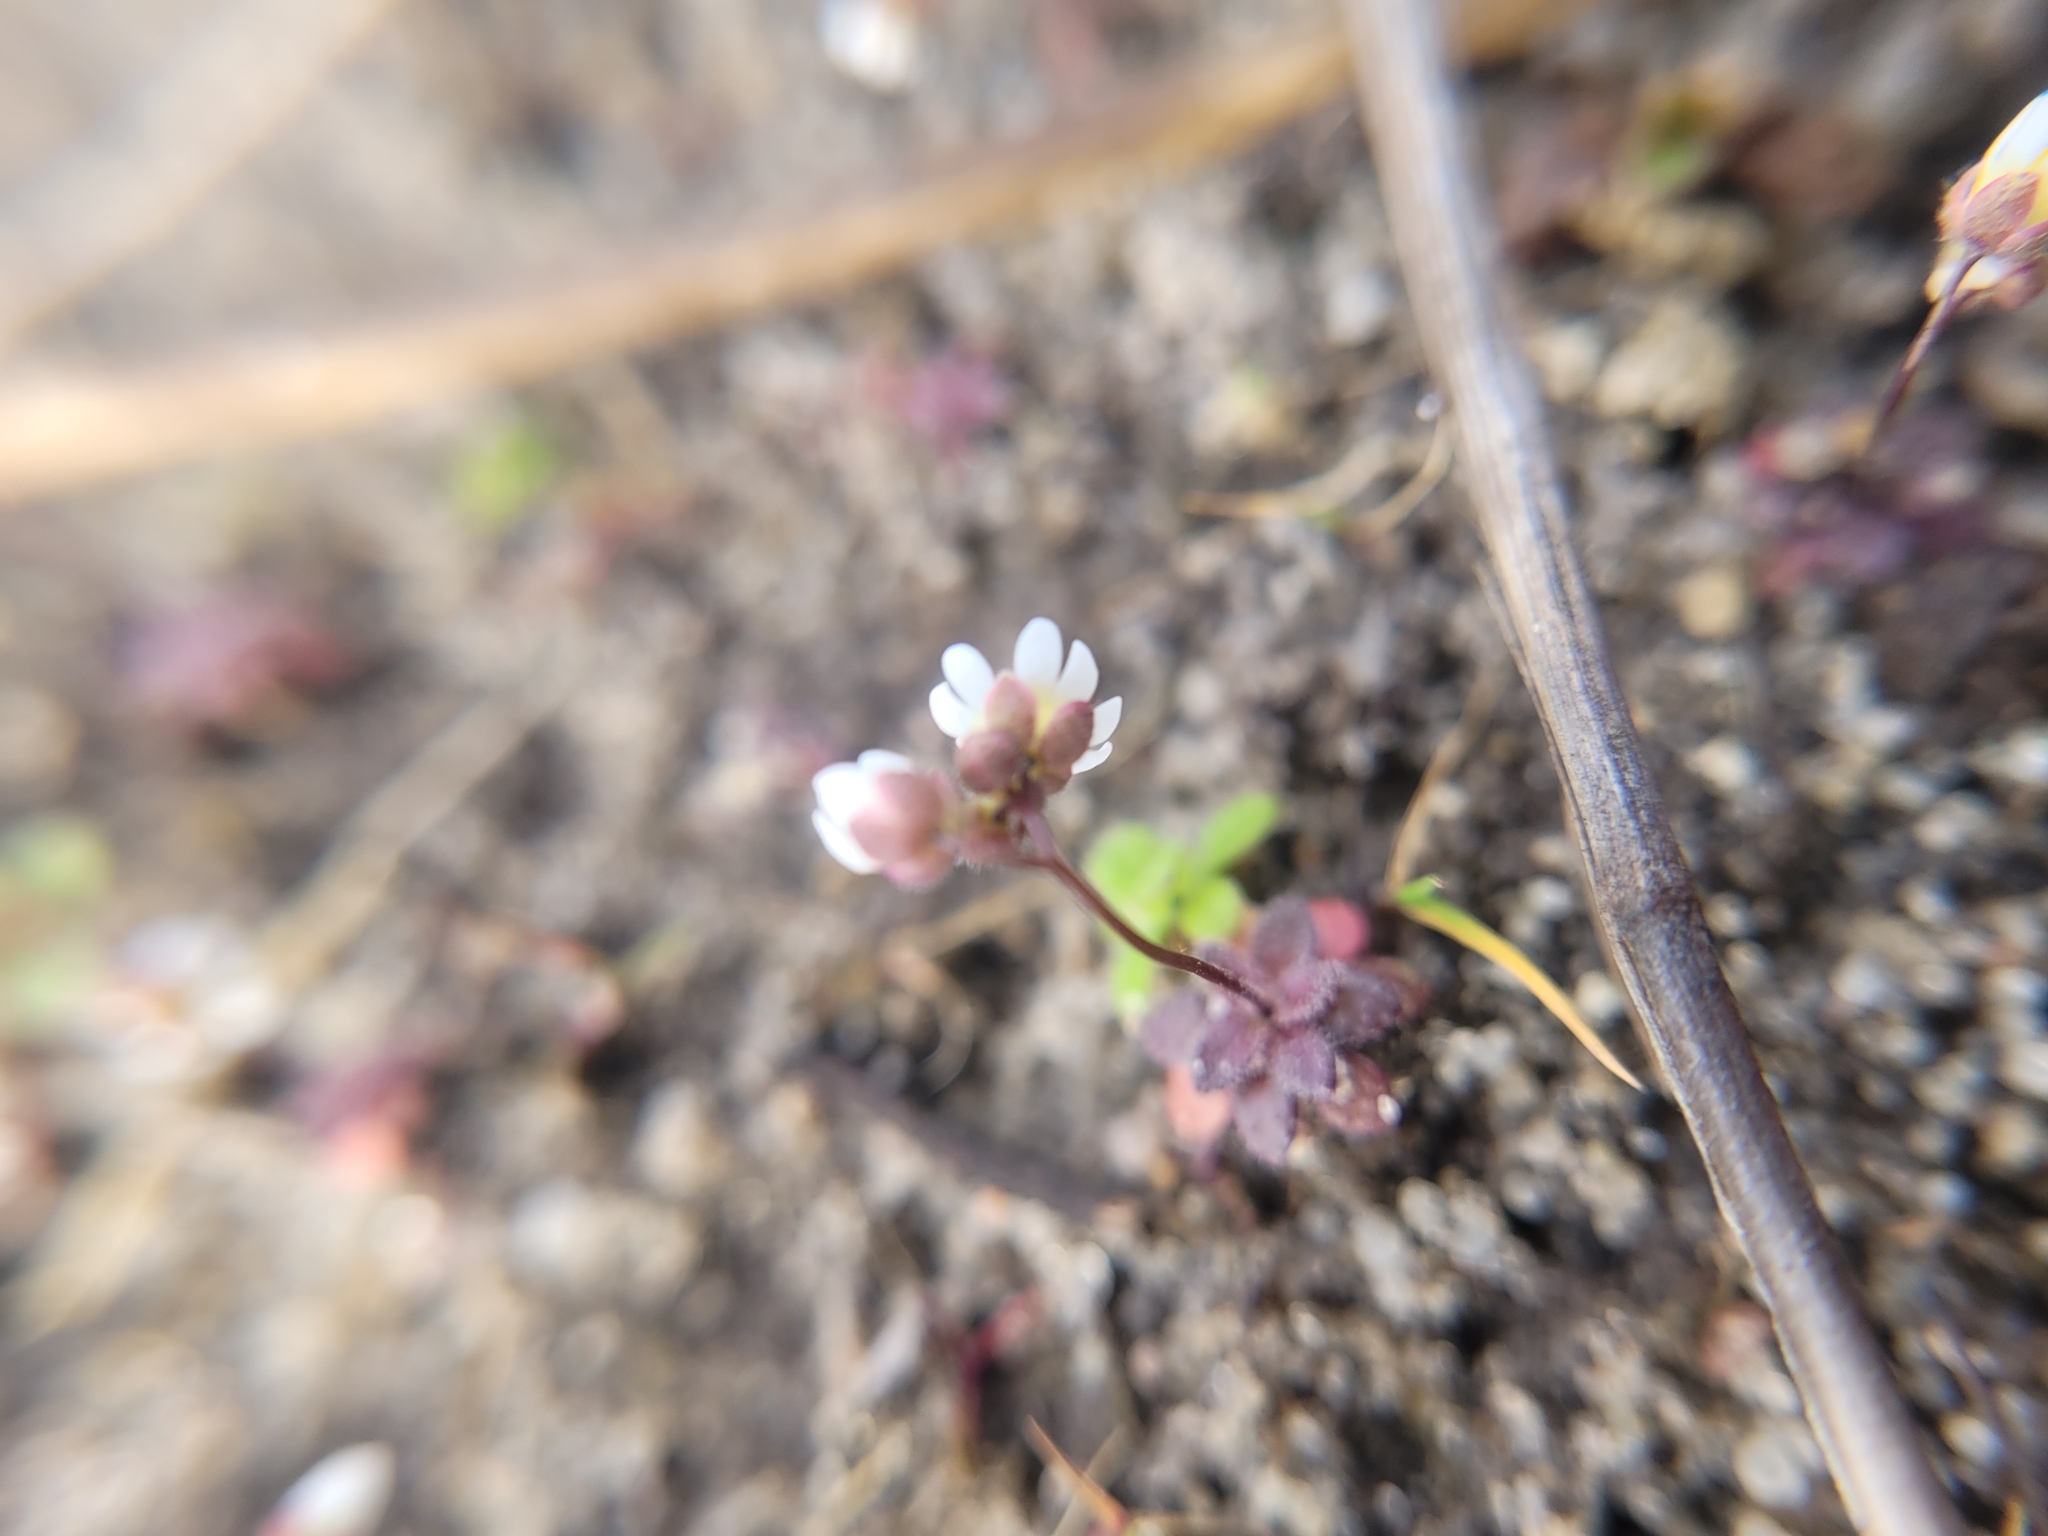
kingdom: Plantae
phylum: Tracheophyta
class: Magnoliopsida
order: Brassicales
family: Brassicaceae
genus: Draba
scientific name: Draba verna
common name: Spring draba
